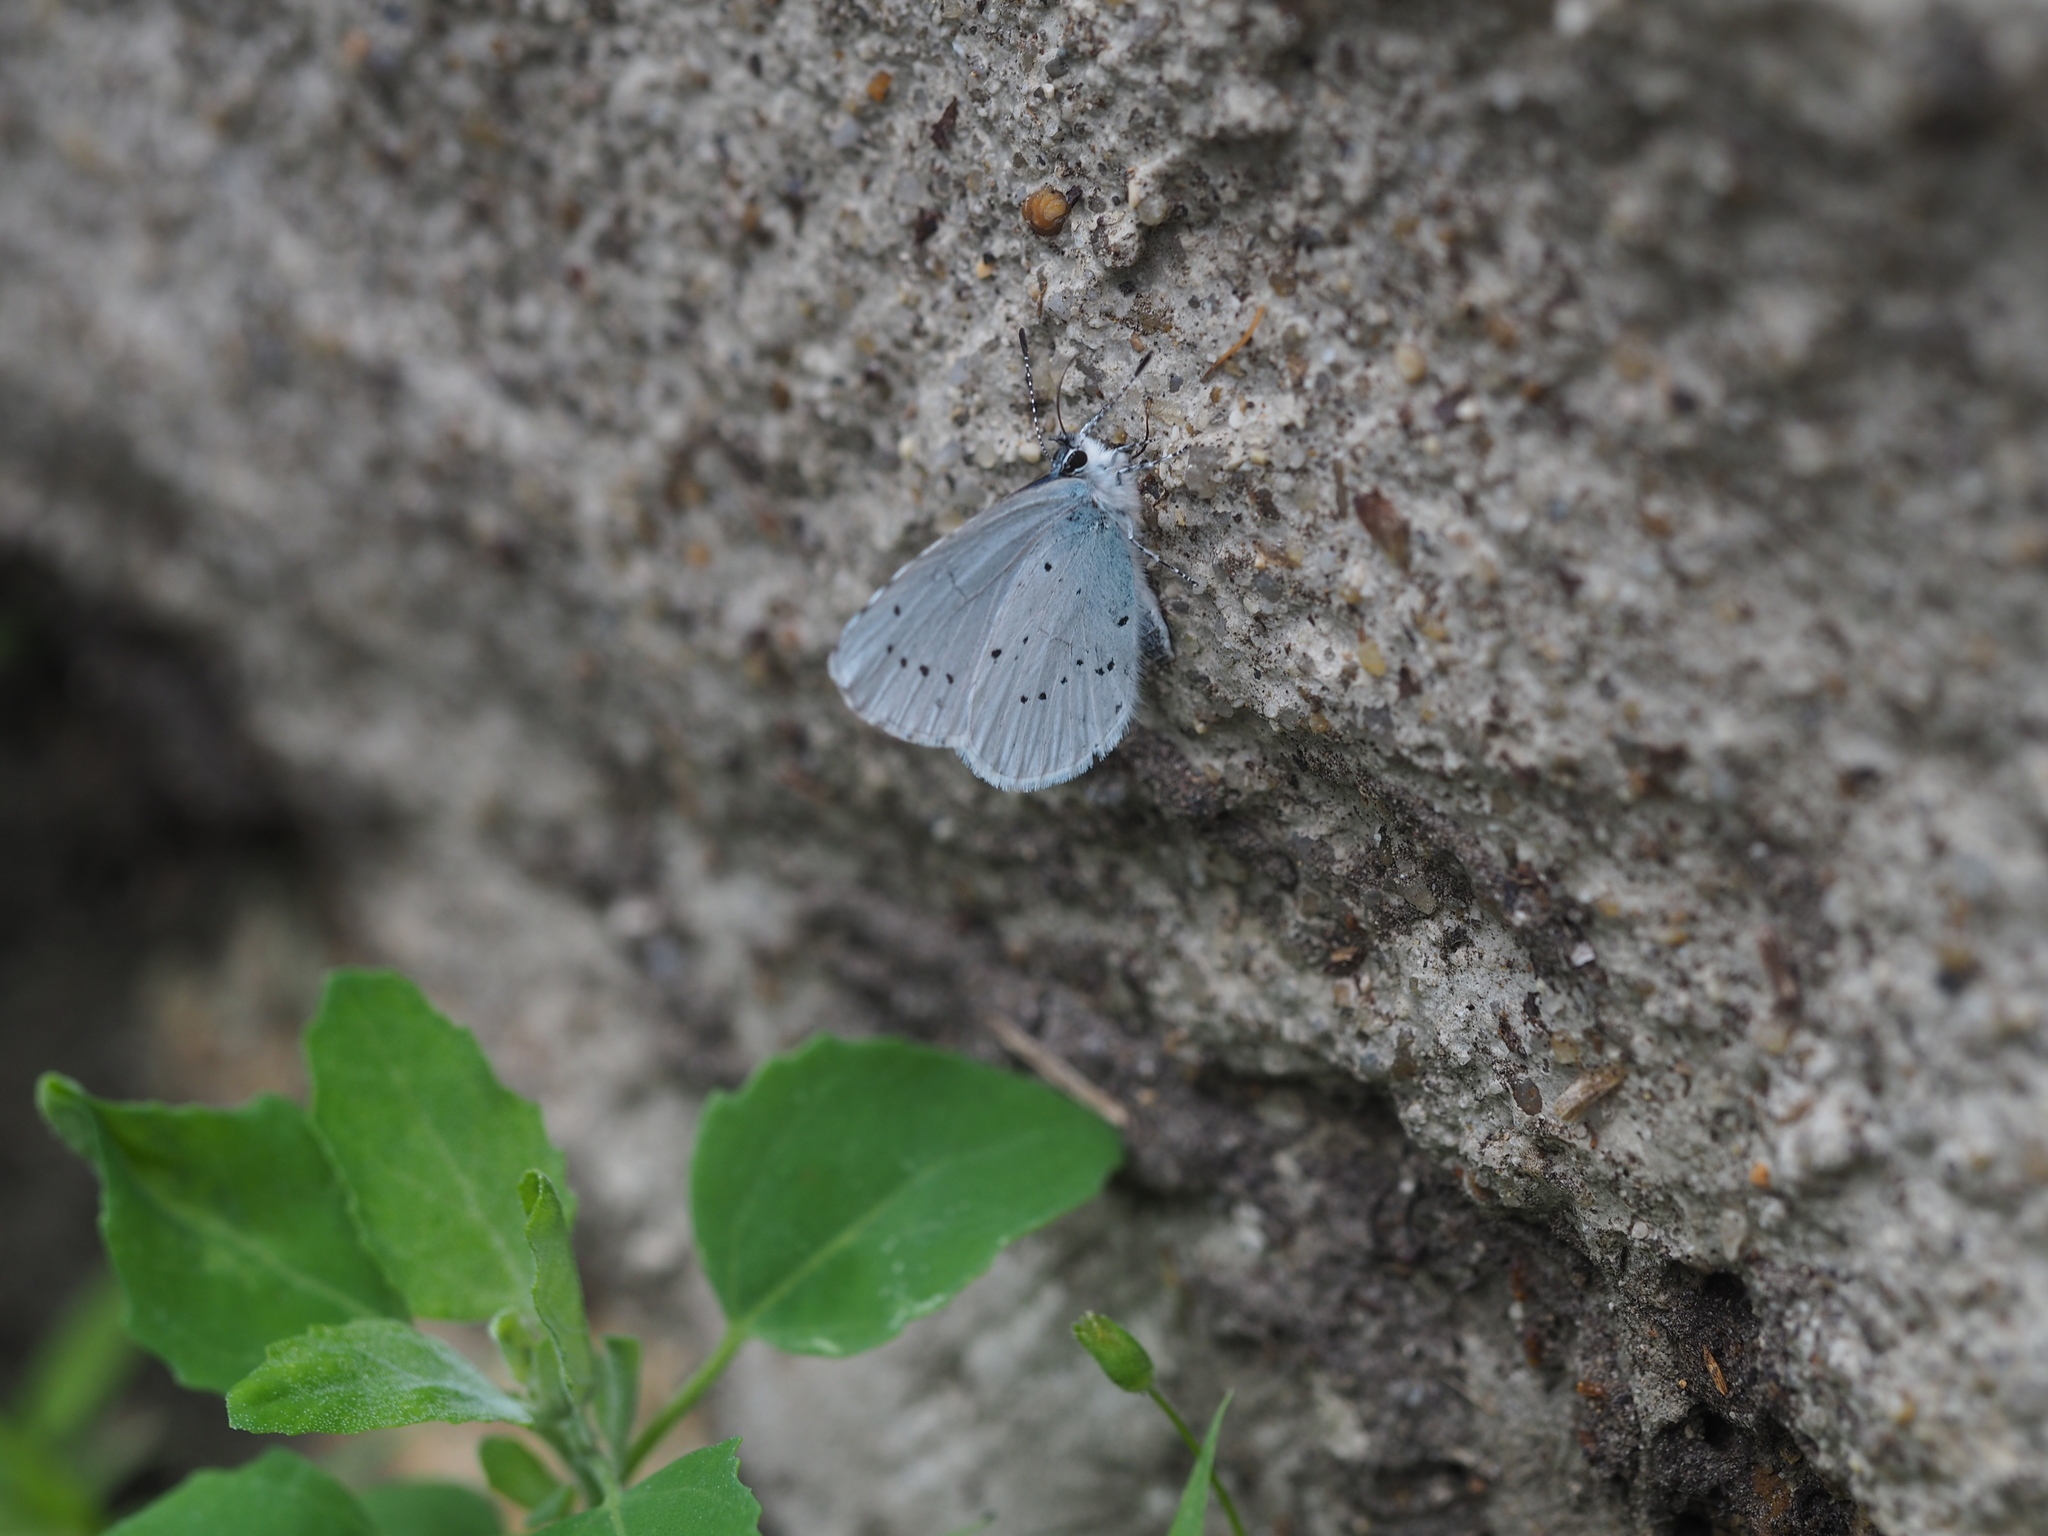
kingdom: Animalia
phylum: Arthropoda
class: Insecta
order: Lepidoptera
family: Lycaenidae
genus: Celastrina
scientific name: Celastrina argiolus
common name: Holly blue
